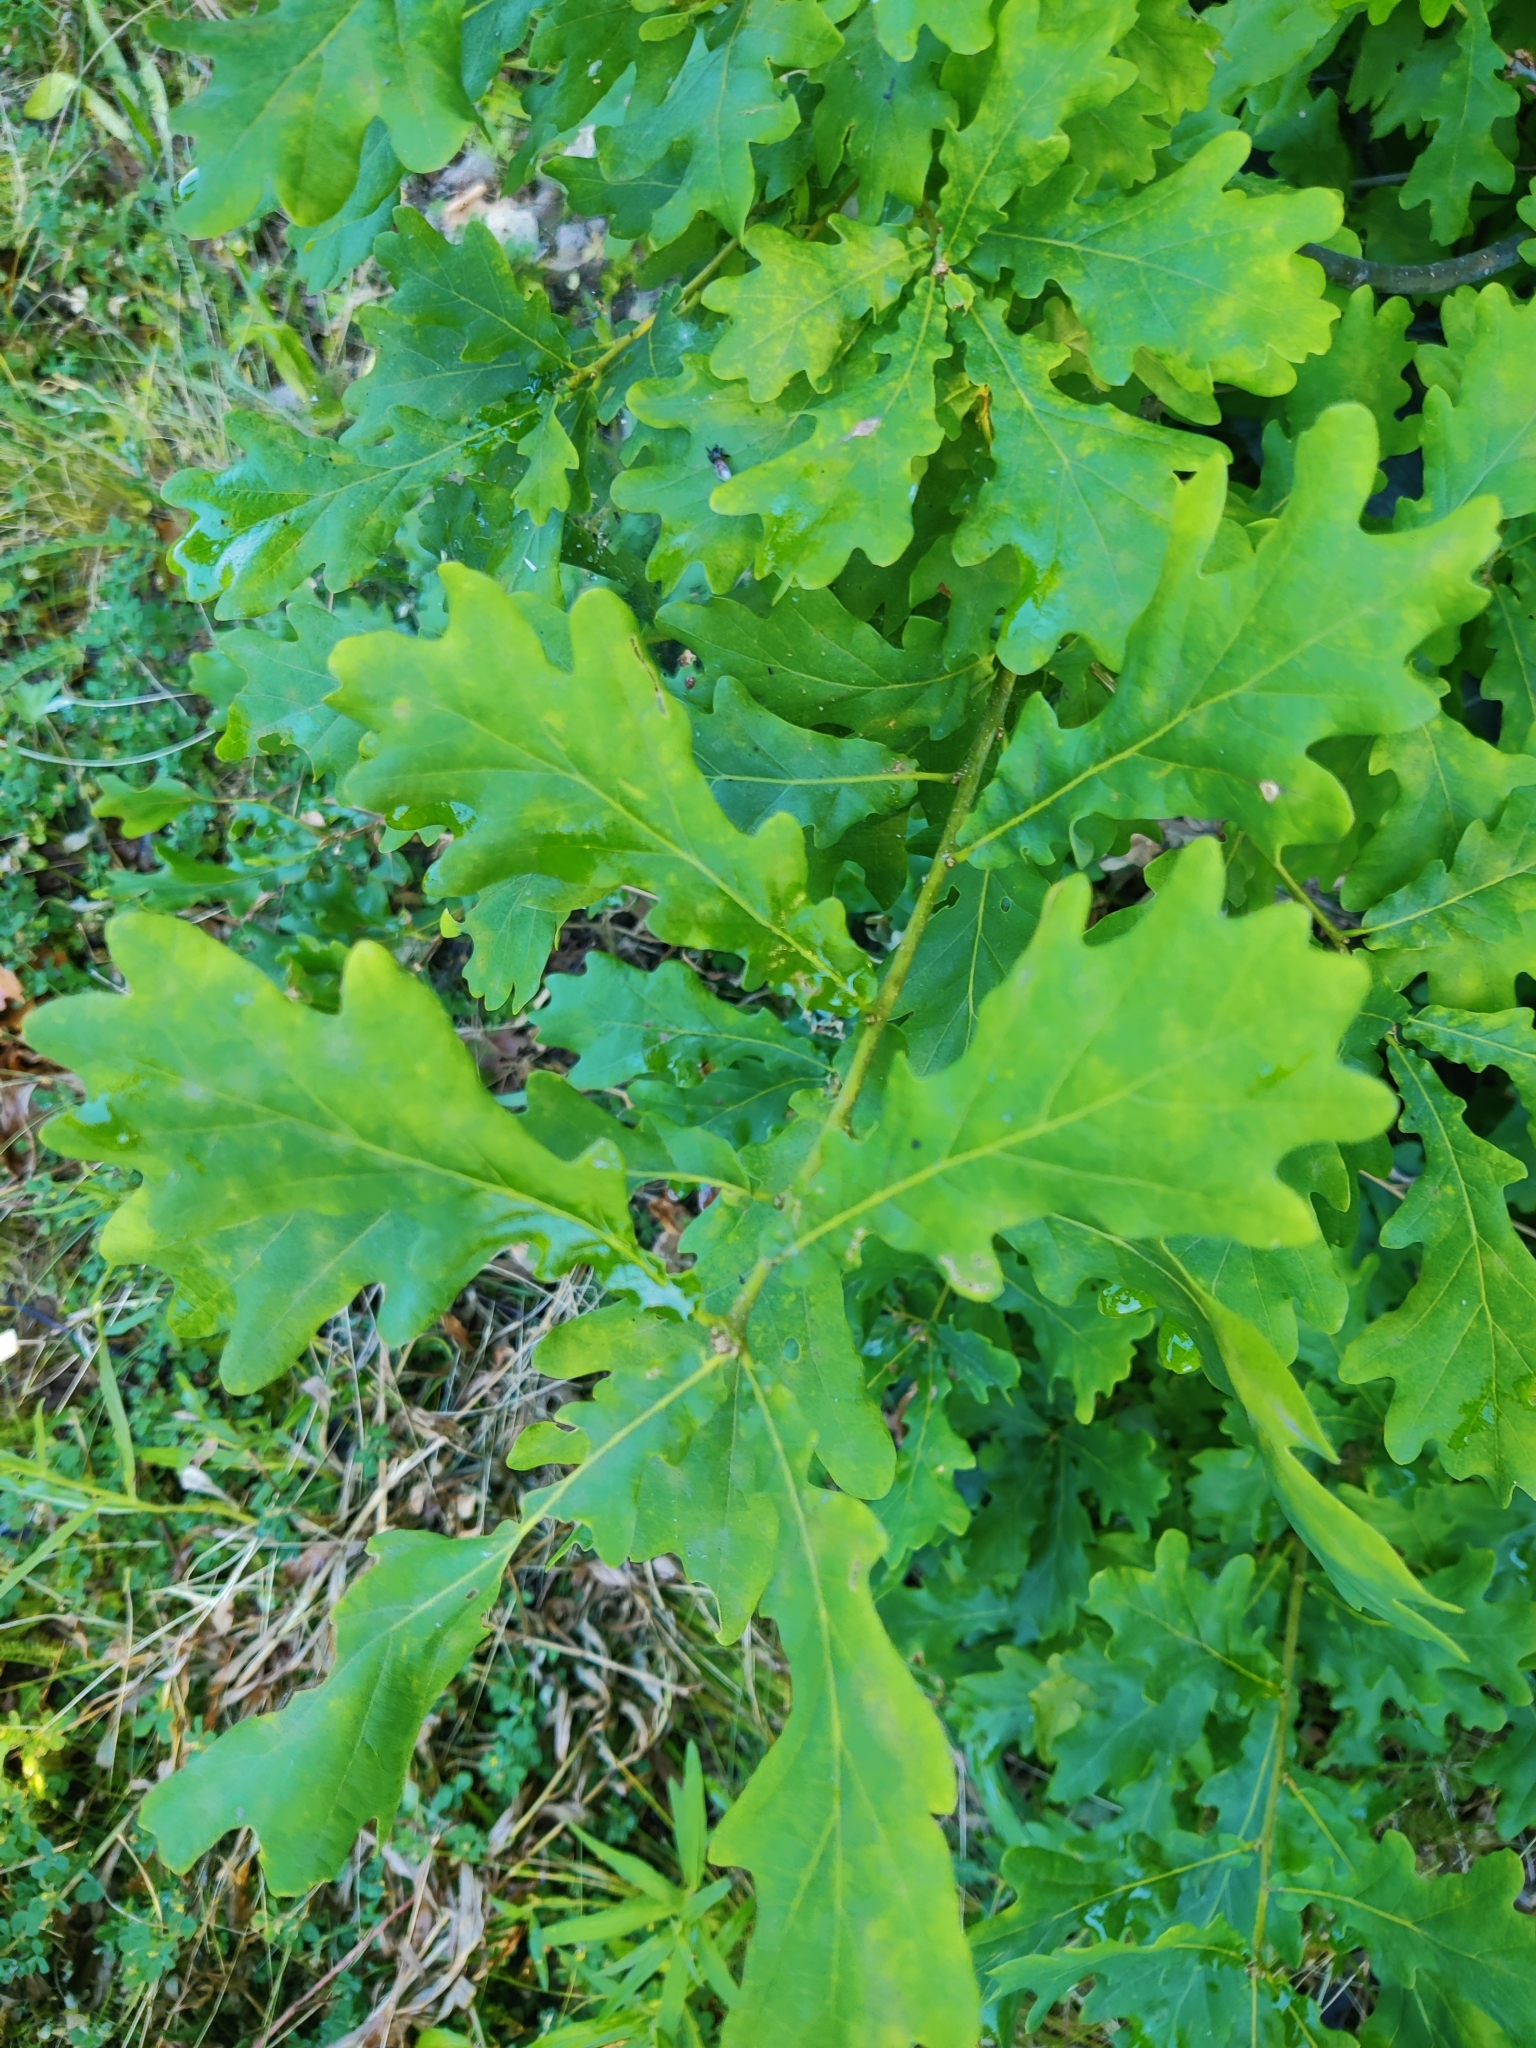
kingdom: Plantae
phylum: Tracheophyta
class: Magnoliopsida
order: Fagales
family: Fagaceae
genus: Quercus
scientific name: Quercus robur
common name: Pedunculate oak
